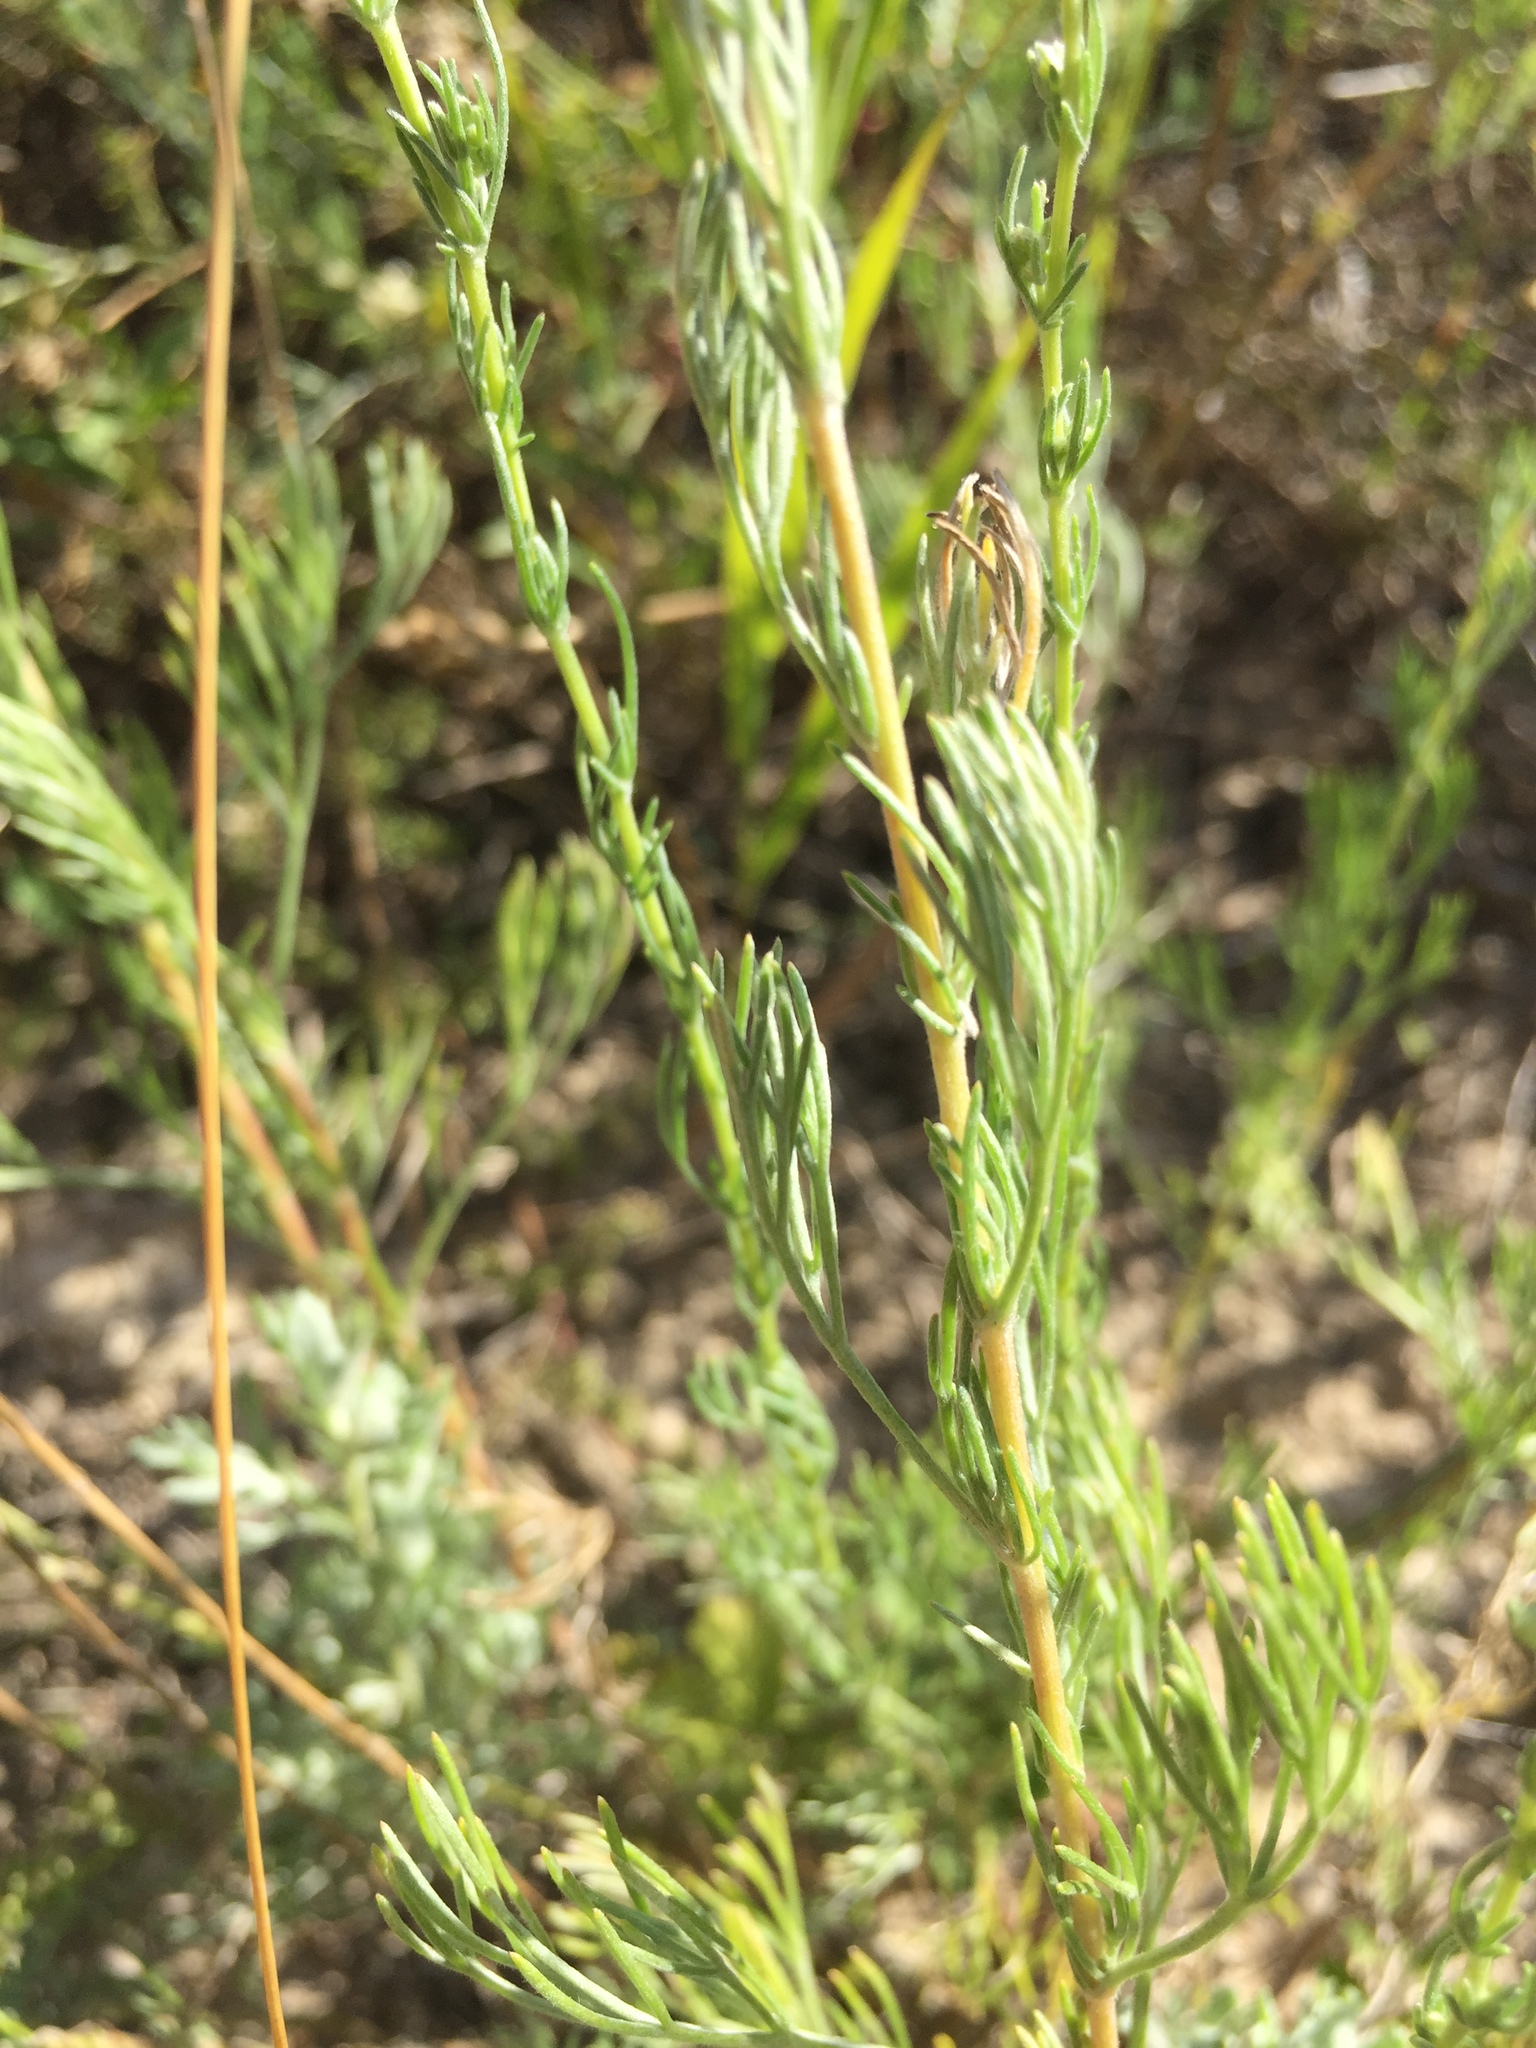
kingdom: Plantae
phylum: Tracheophyta
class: Magnoliopsida
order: Asterales
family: Asteraceae
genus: Artemisia
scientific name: Artemisia campestris
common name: Field wormwood
